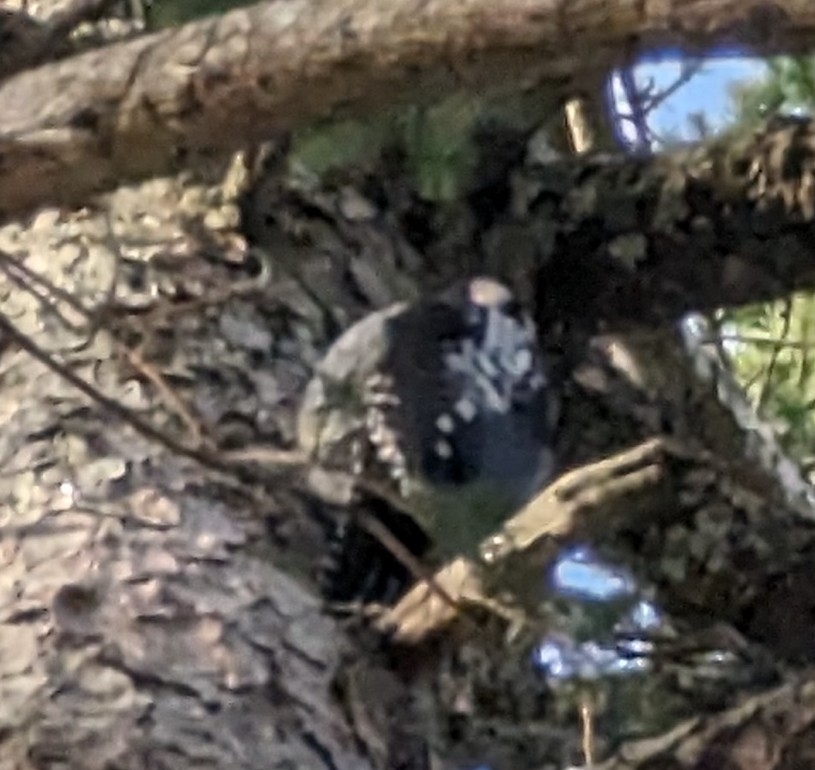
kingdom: Animalia
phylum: Chordata
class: Aves
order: Piciformes
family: Picidae
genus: Picoides
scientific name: Picoides tridactylus
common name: Eurasian three-toed woodpecker
